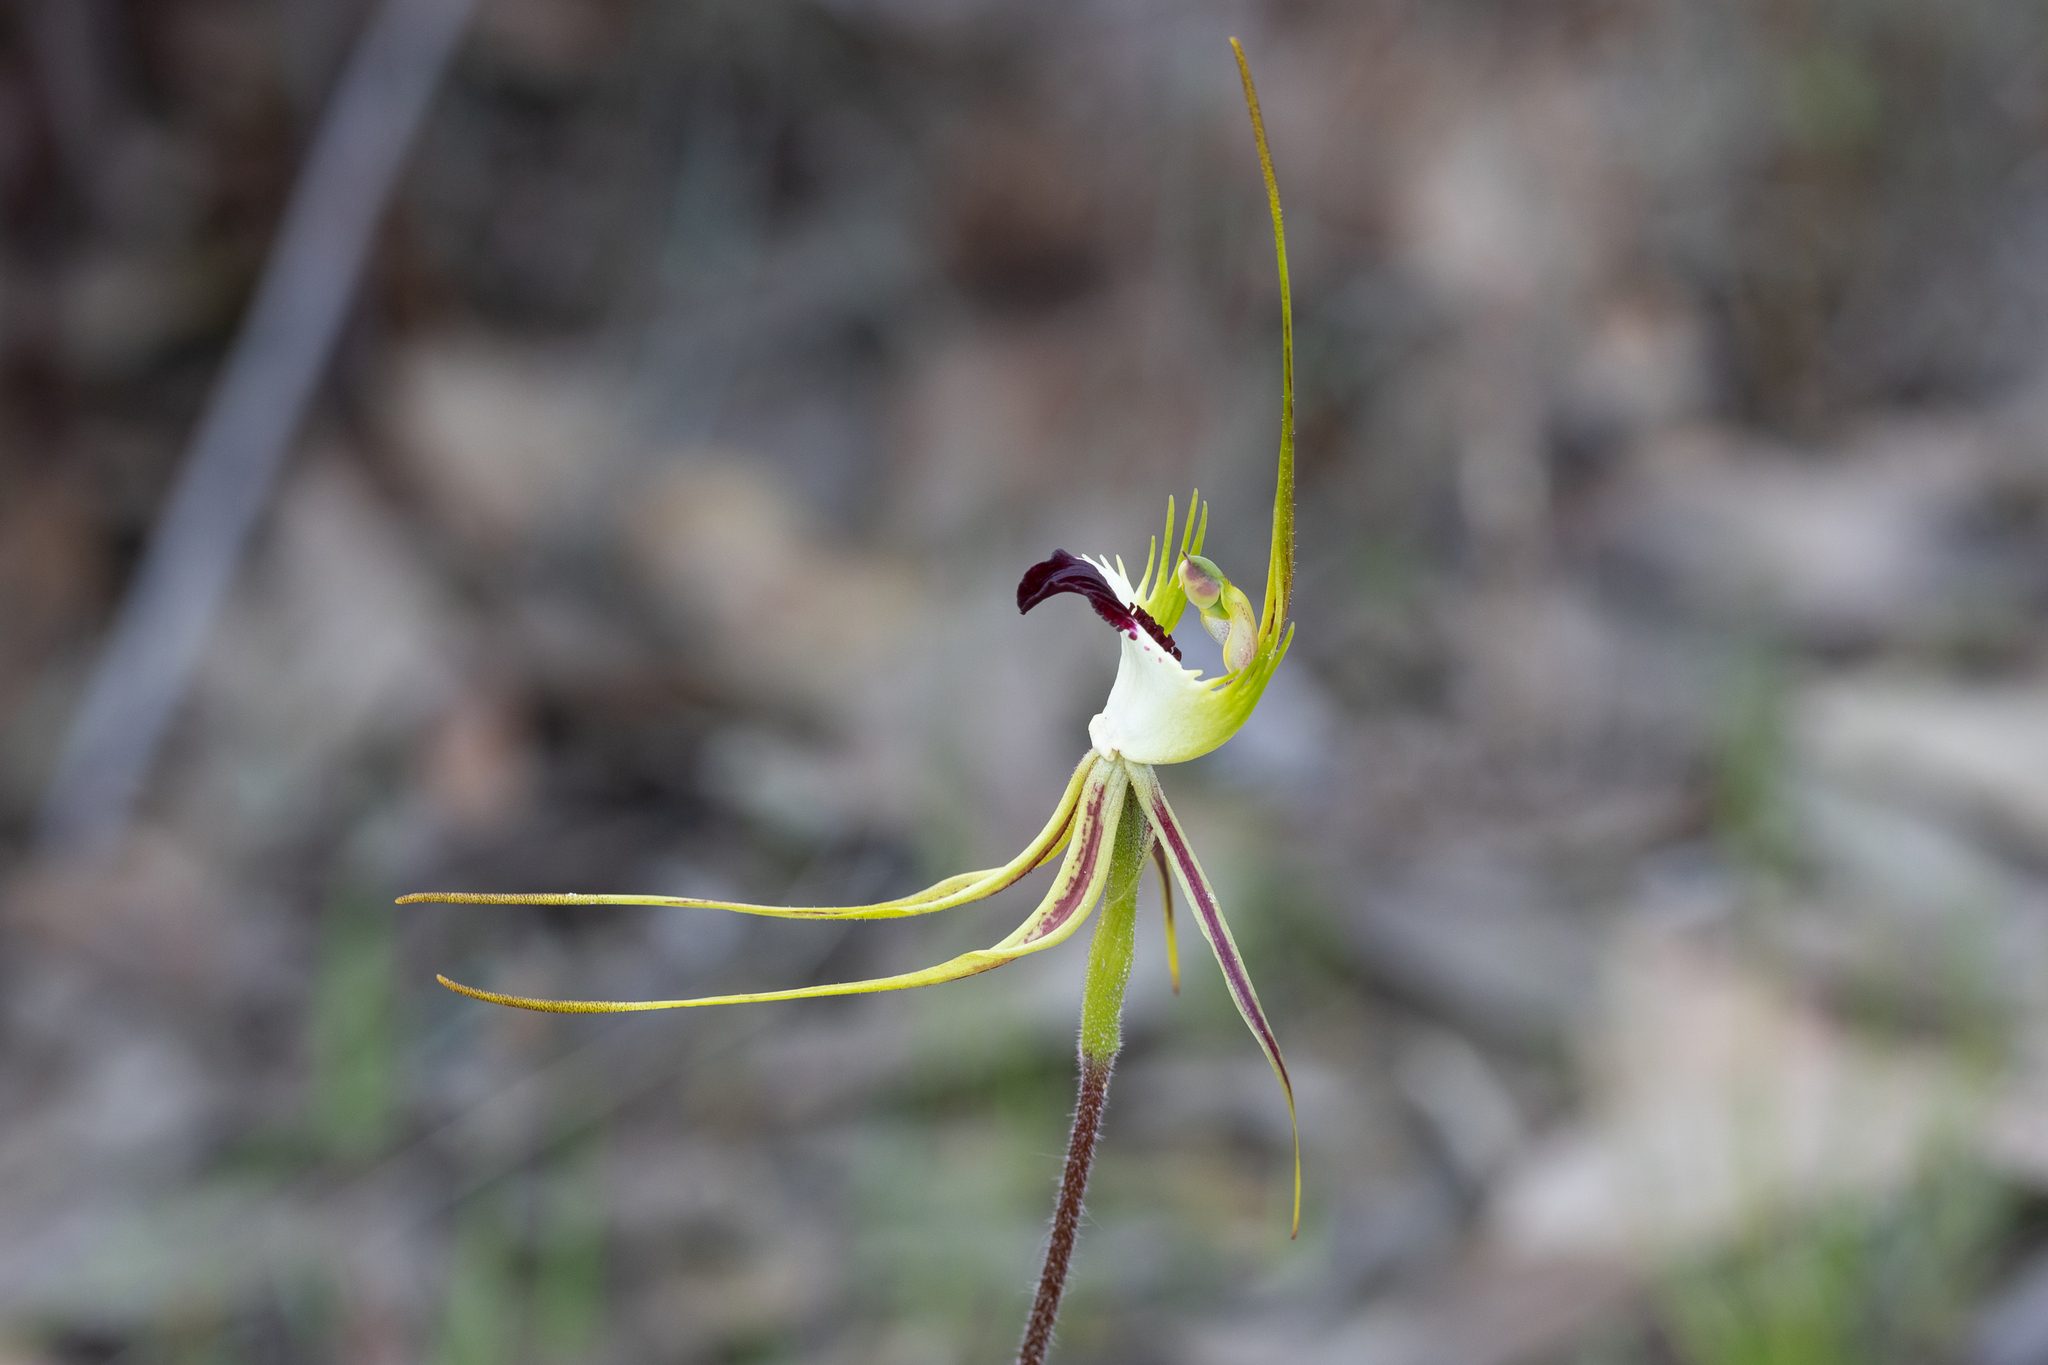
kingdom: Plantae
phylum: Tracheophyta
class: Liliopsida
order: Asparagales
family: Orchidaceae
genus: Caladenia
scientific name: Caladenia tentaculata
